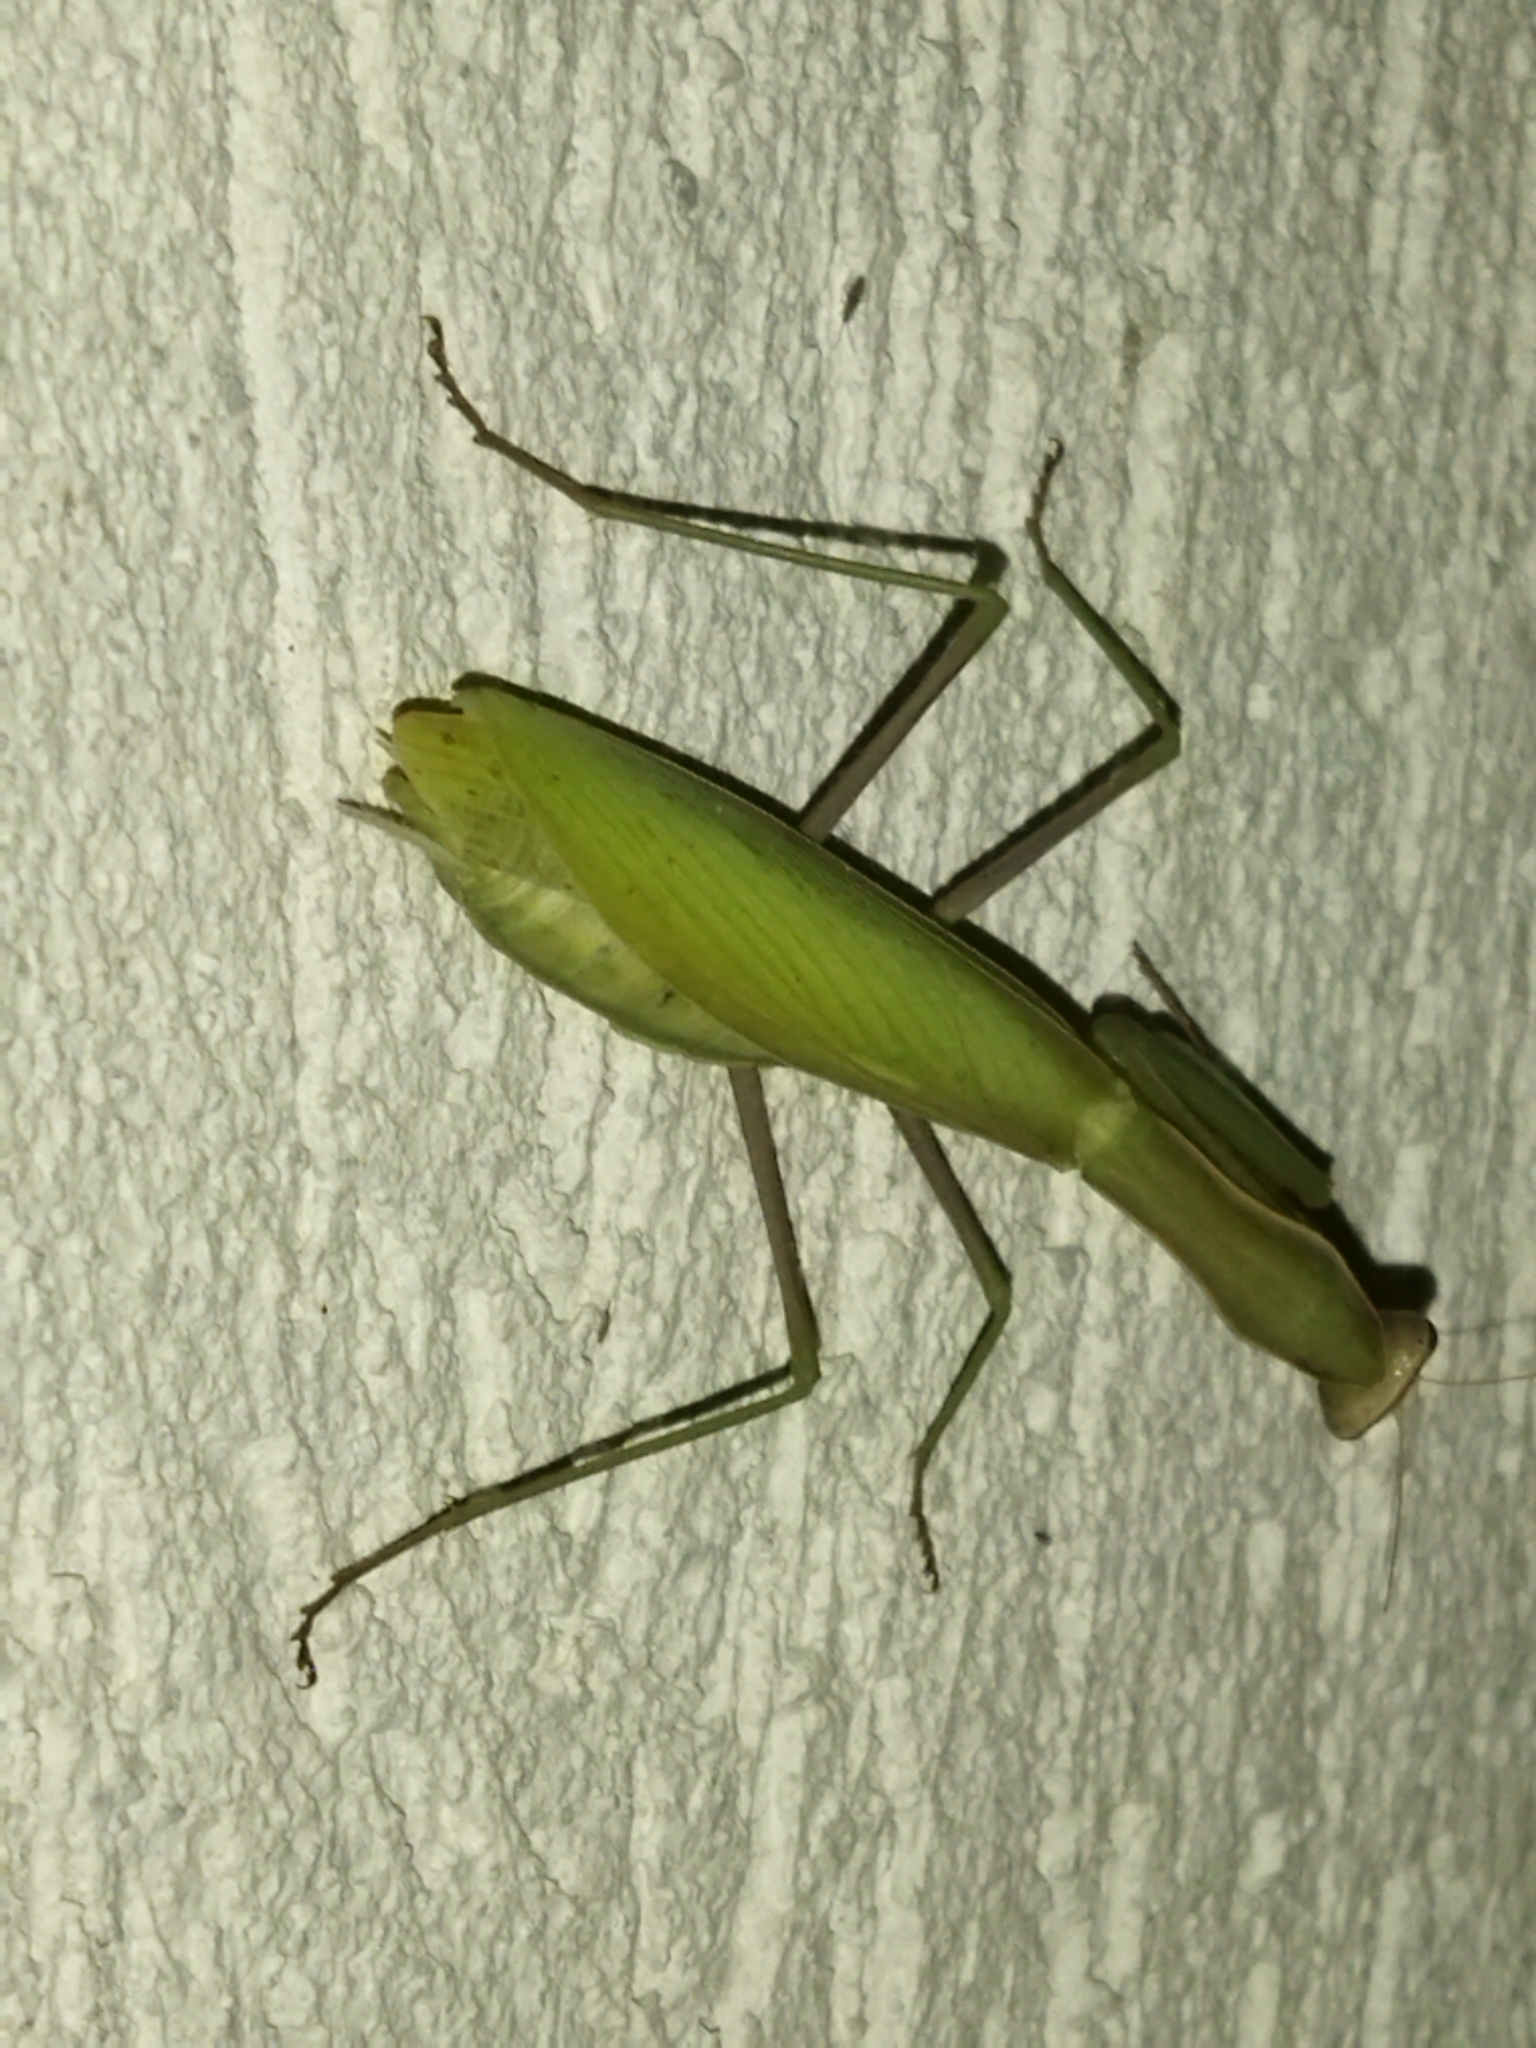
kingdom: Animalia
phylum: Arthropoda
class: Insecta
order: Mantodea
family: Mantidae
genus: Mantis
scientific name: Mantis religiosa
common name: Praying mantis
